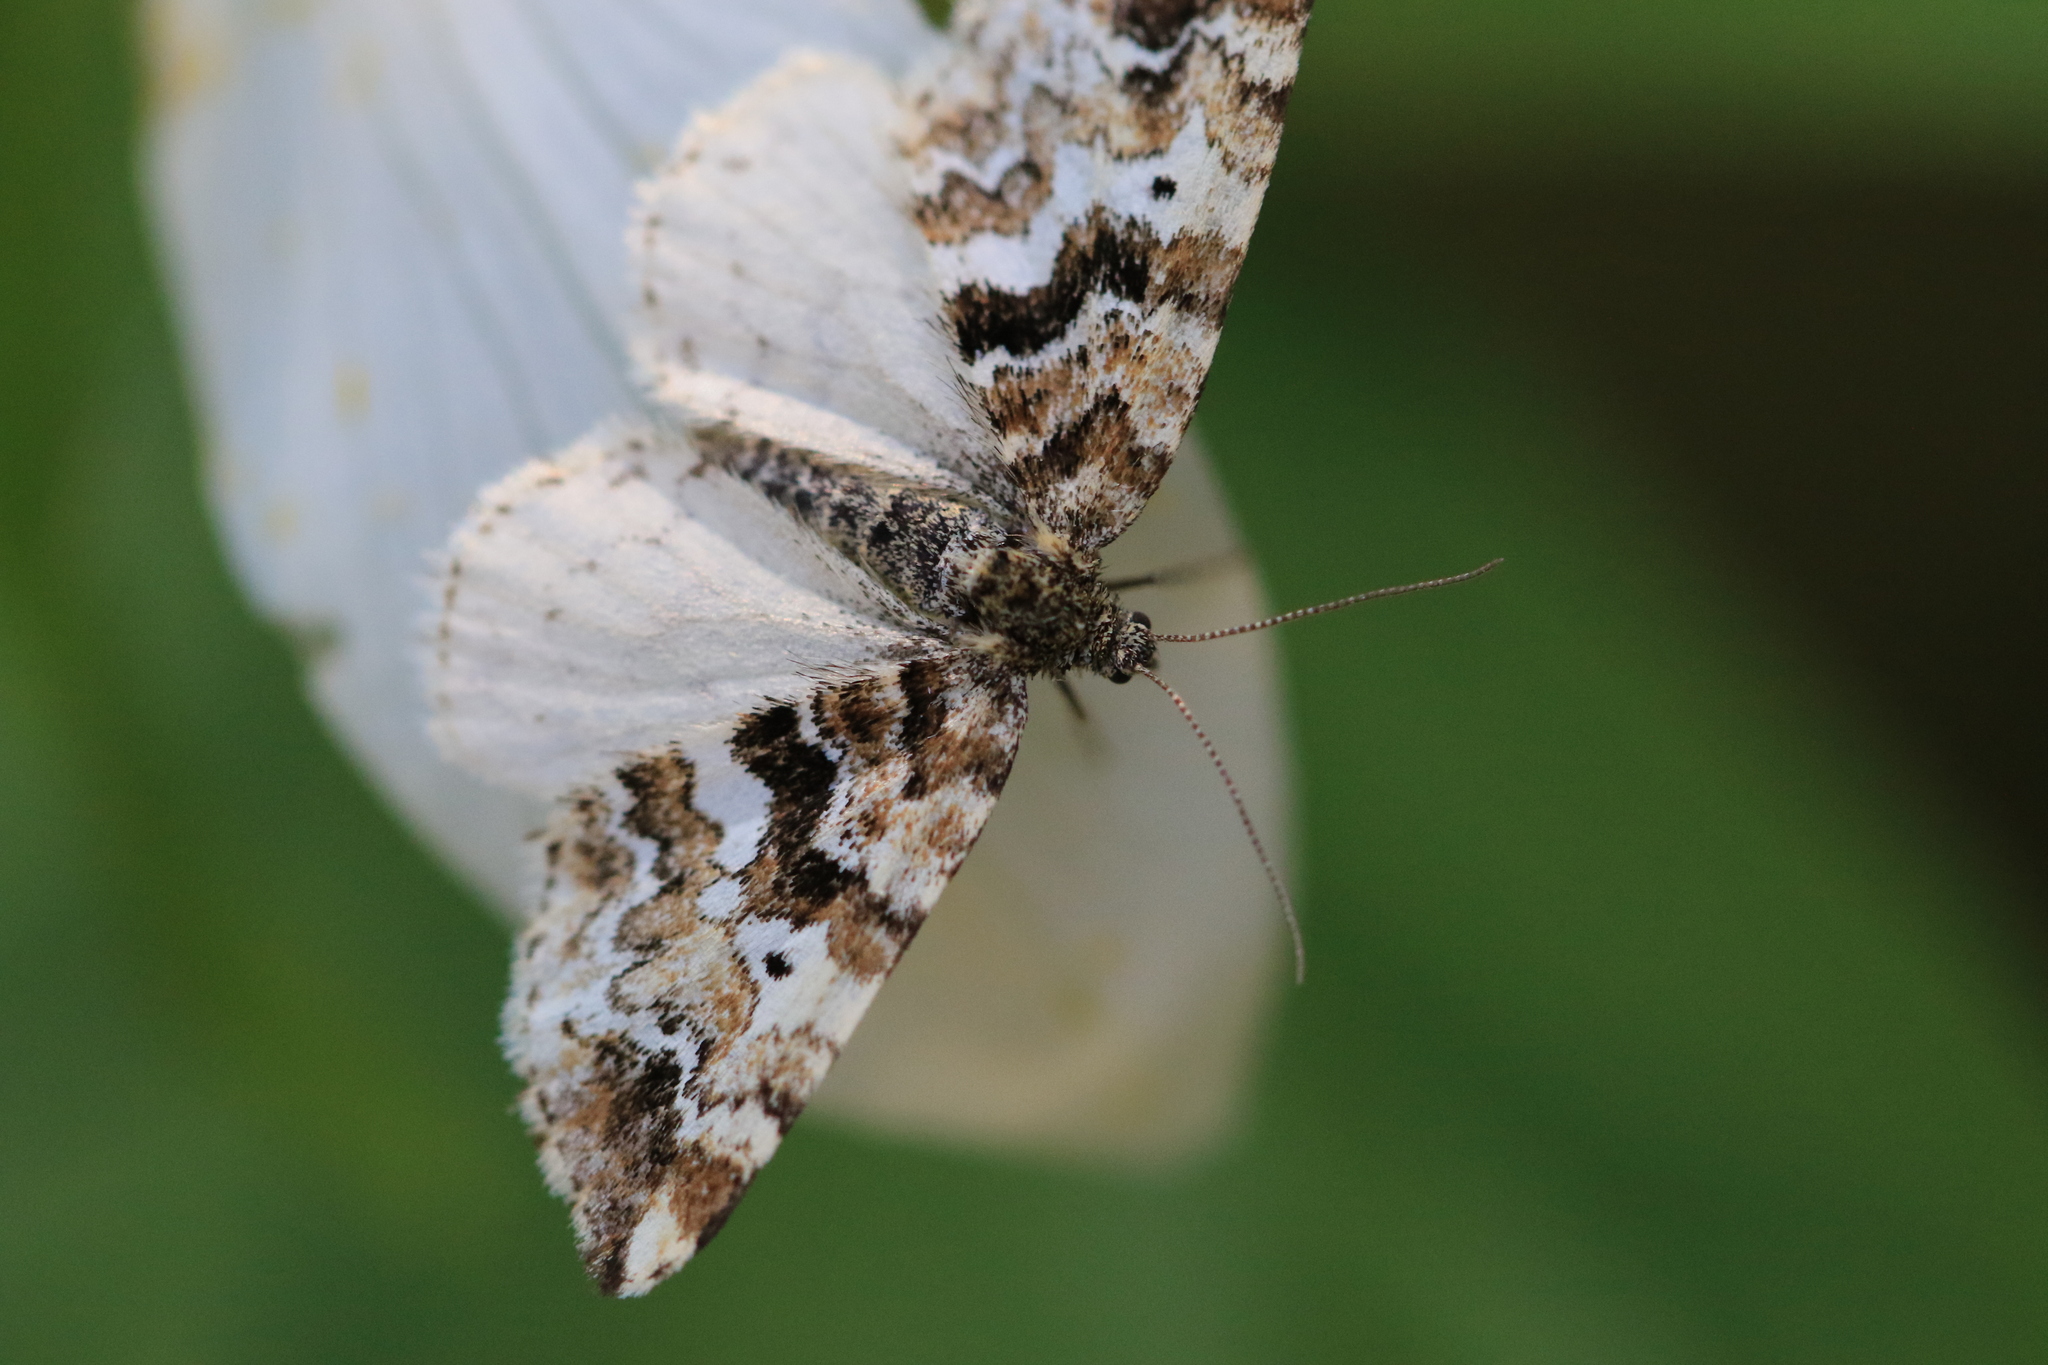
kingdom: Animalia
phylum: Arthropoda
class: Insecta
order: Lepidoptera
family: Geometridae
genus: Enchoria
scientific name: Enchoria lacteata
